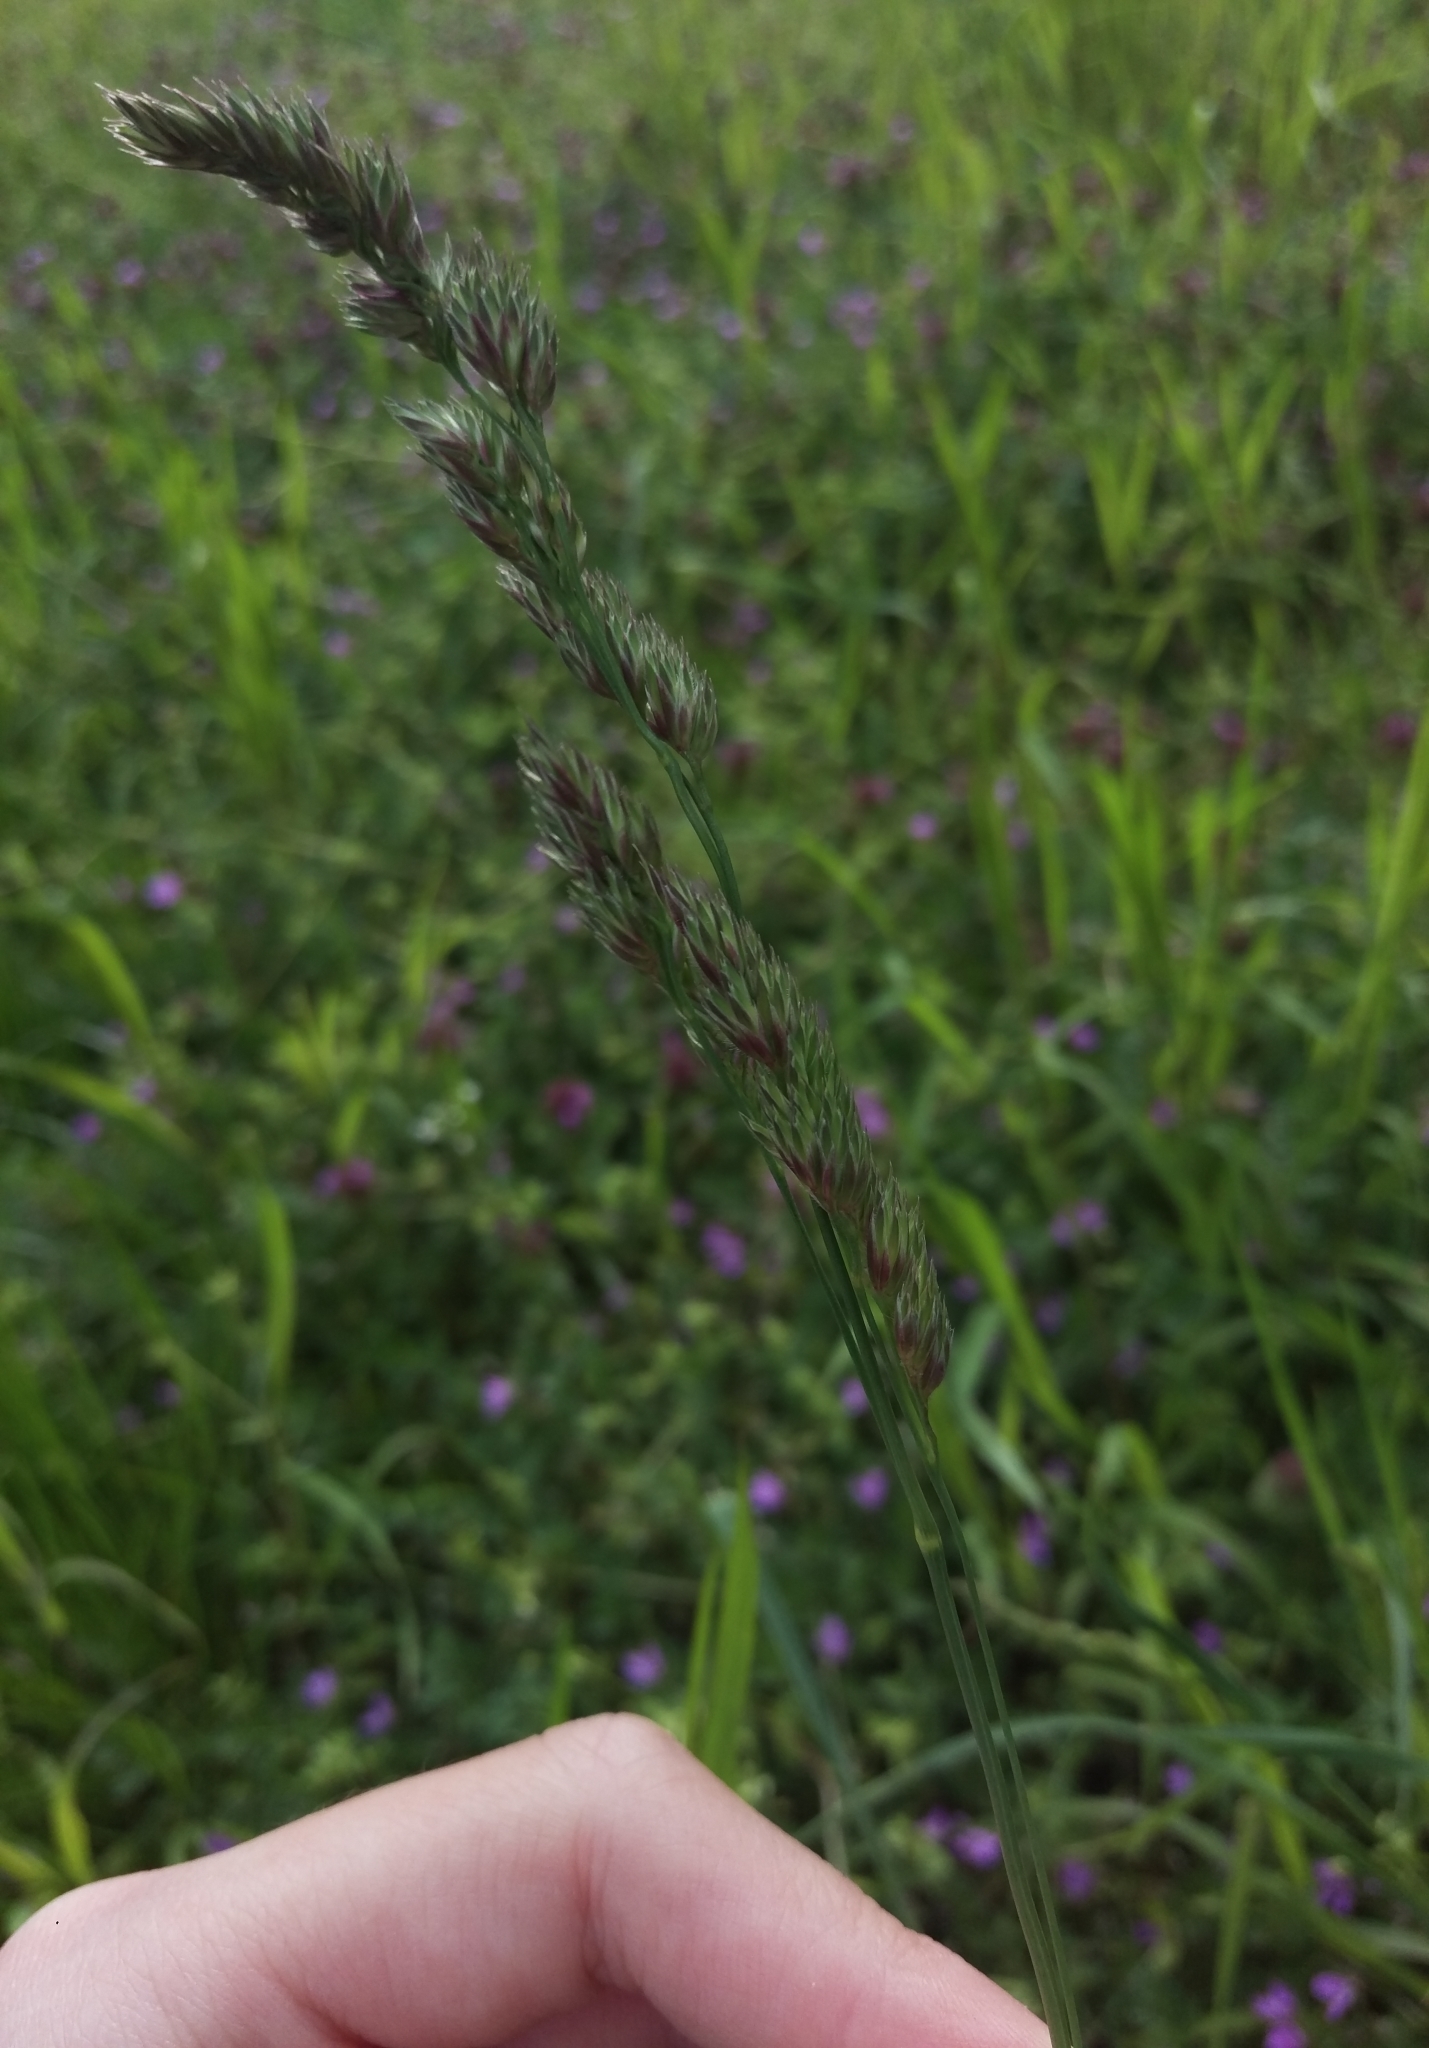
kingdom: Plantae
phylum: Tracheophyta
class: Liliopsida
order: Poales
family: Poaceae
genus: Dactylis
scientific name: Dactylis glomerata
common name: Orchardgrass
